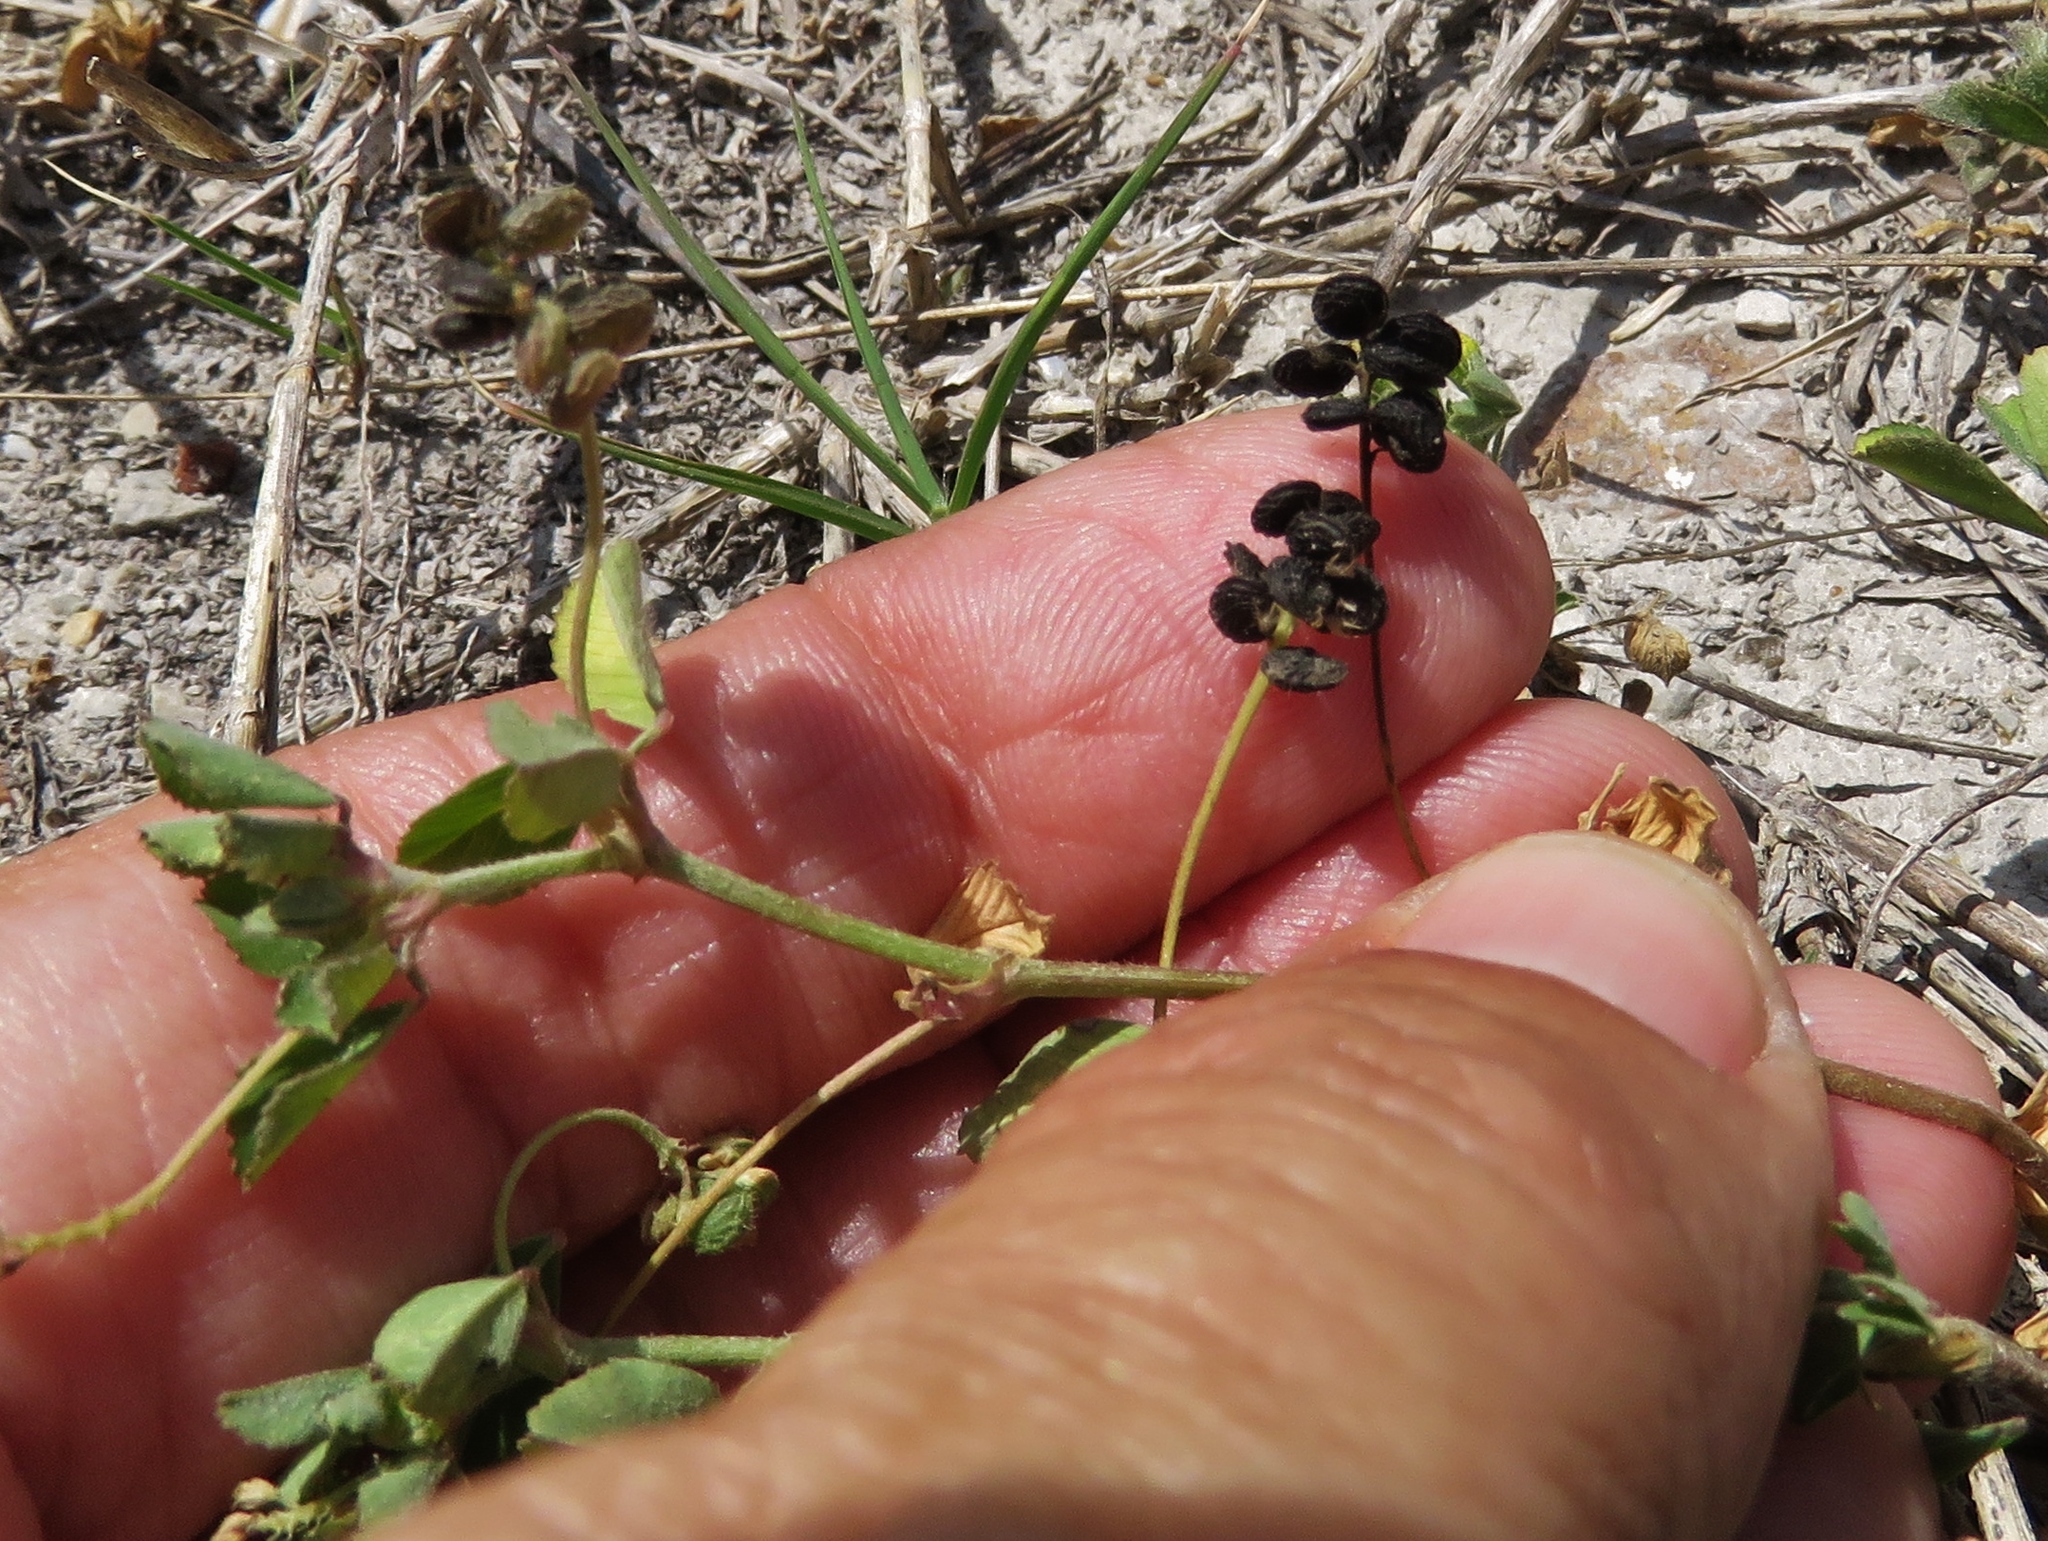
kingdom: Plantae
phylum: Tracheophyta
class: Magnoliopsida
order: Fabales
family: Fabaceae
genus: Medicago
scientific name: Medicago lupulina
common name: Black medick
